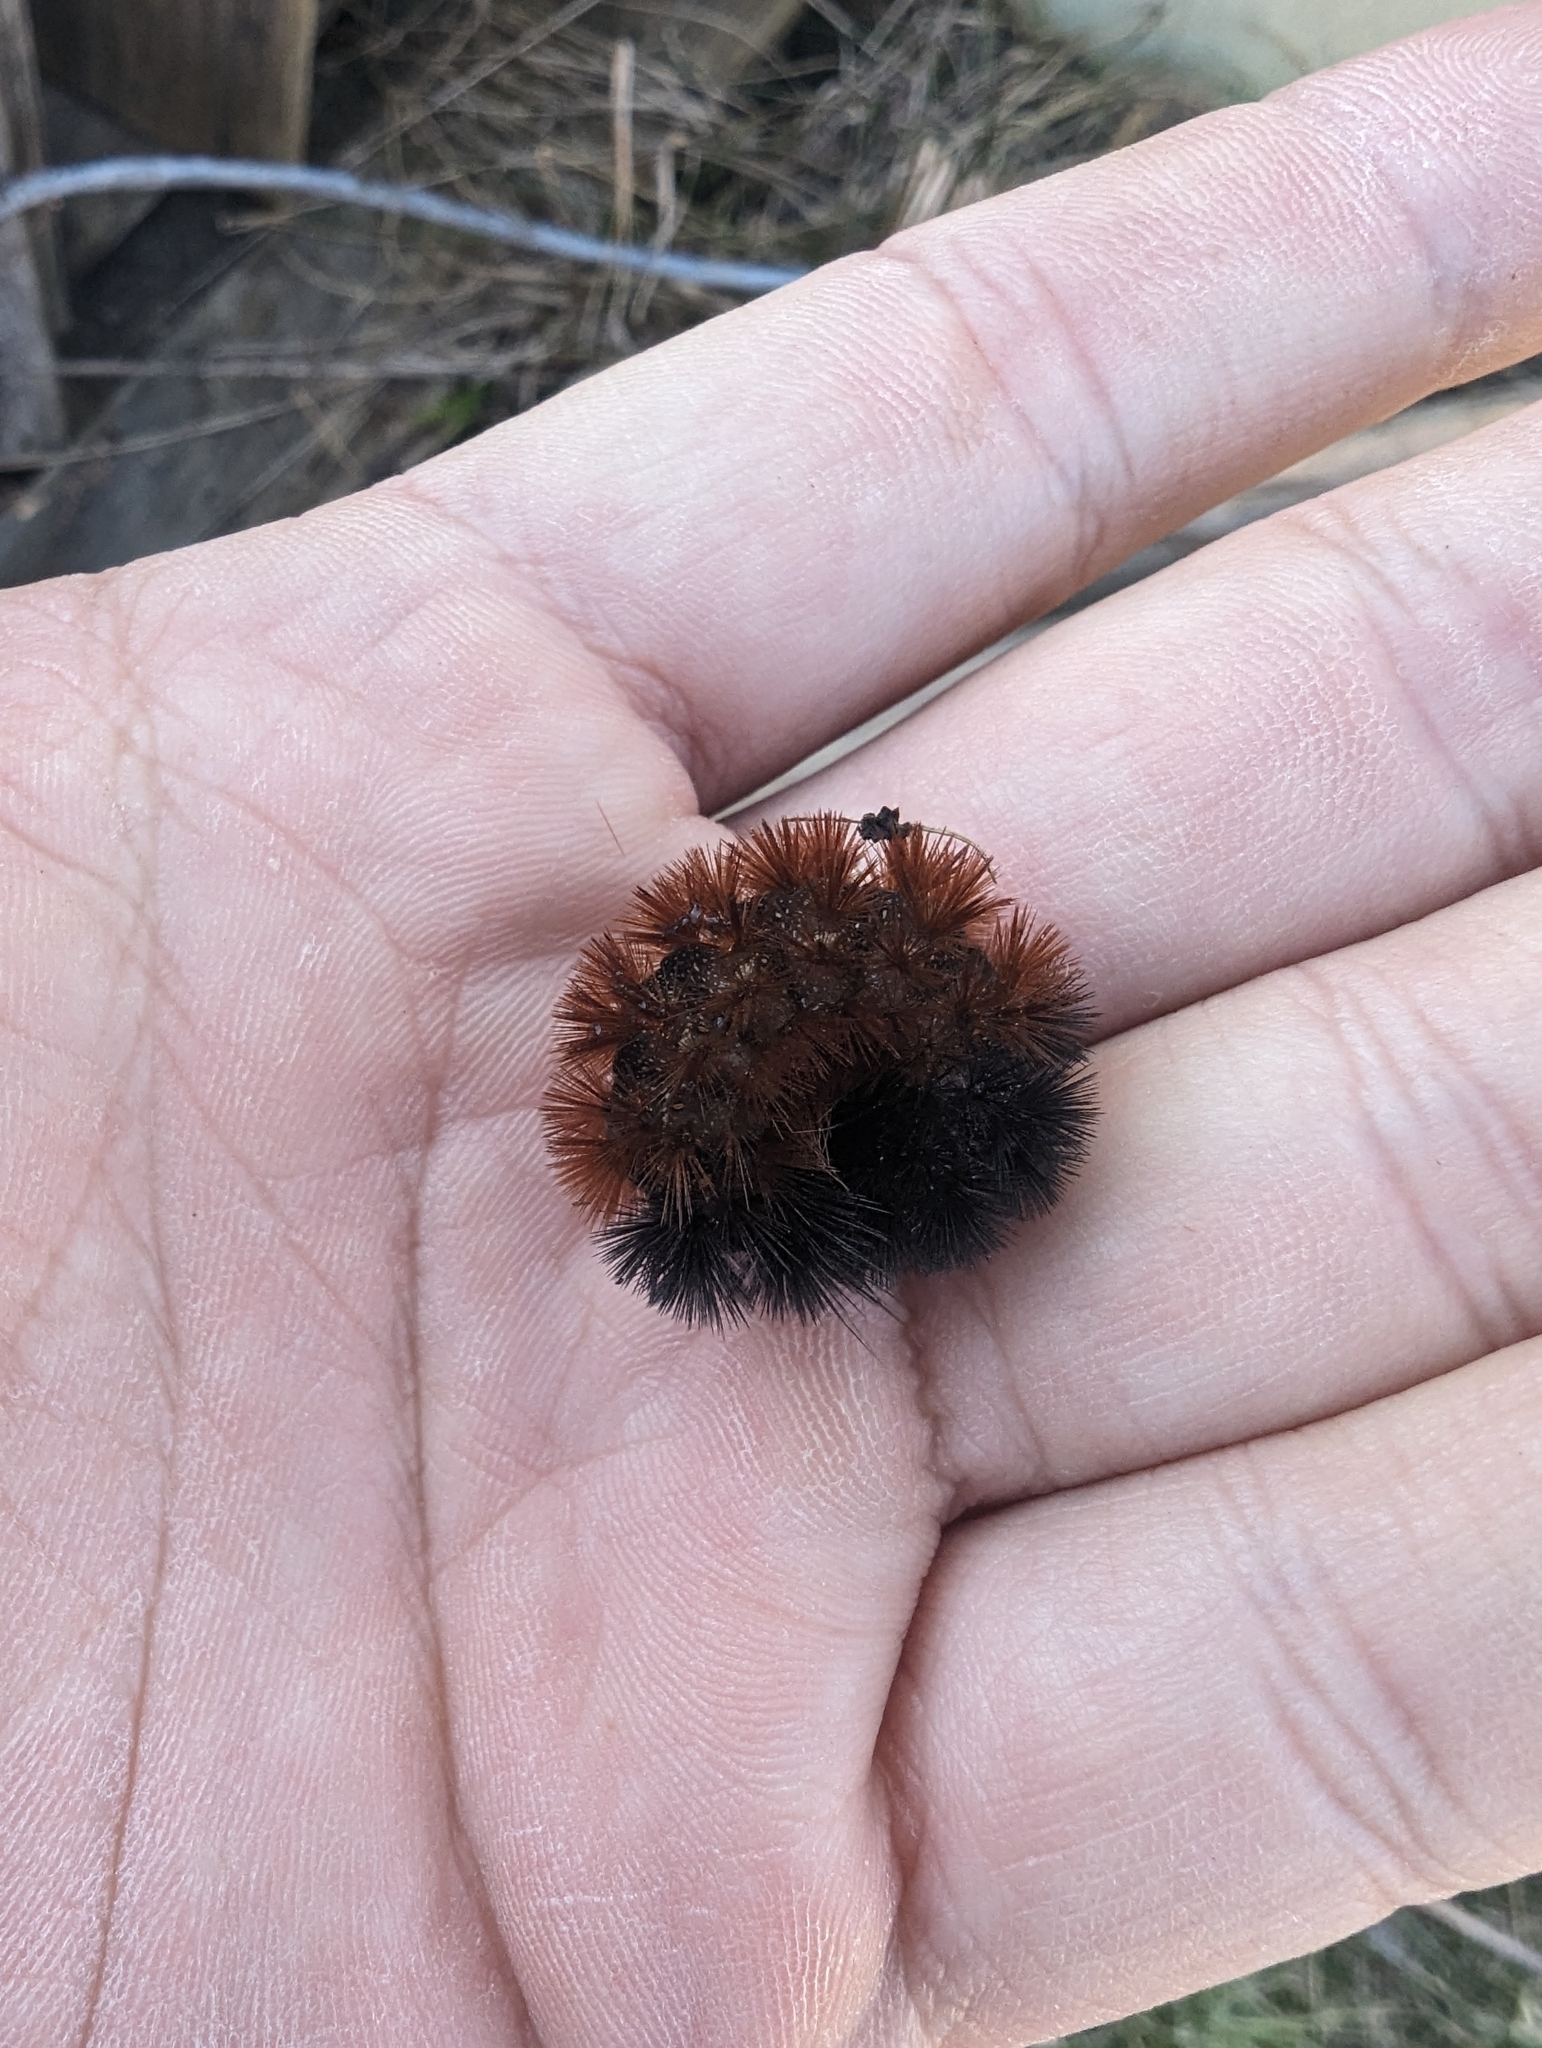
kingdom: Animalia
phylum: Arthropoda
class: Insecta
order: Lepidoptera
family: Erebidae
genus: Pyrrharctia
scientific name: Pyrrharctia isabella
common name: Isabella tiger moth
